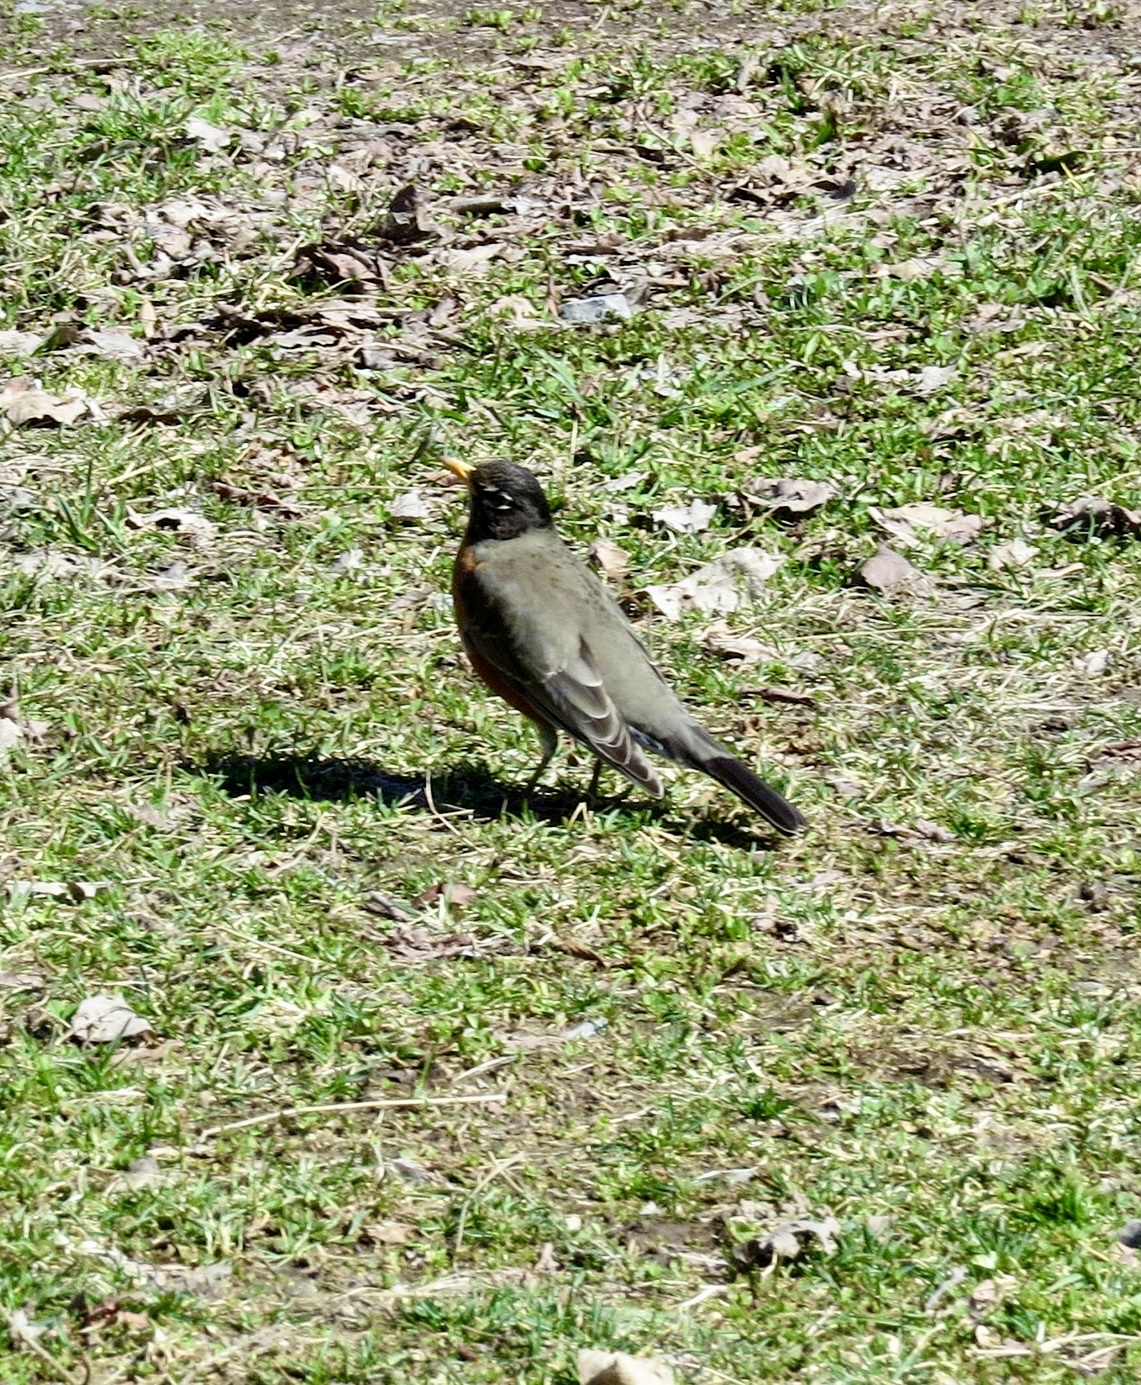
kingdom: Animalia
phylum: Chordata
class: Aves
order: Passeriformes
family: Turdidae
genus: Turdus
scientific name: Turdus migratorius
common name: American robin
